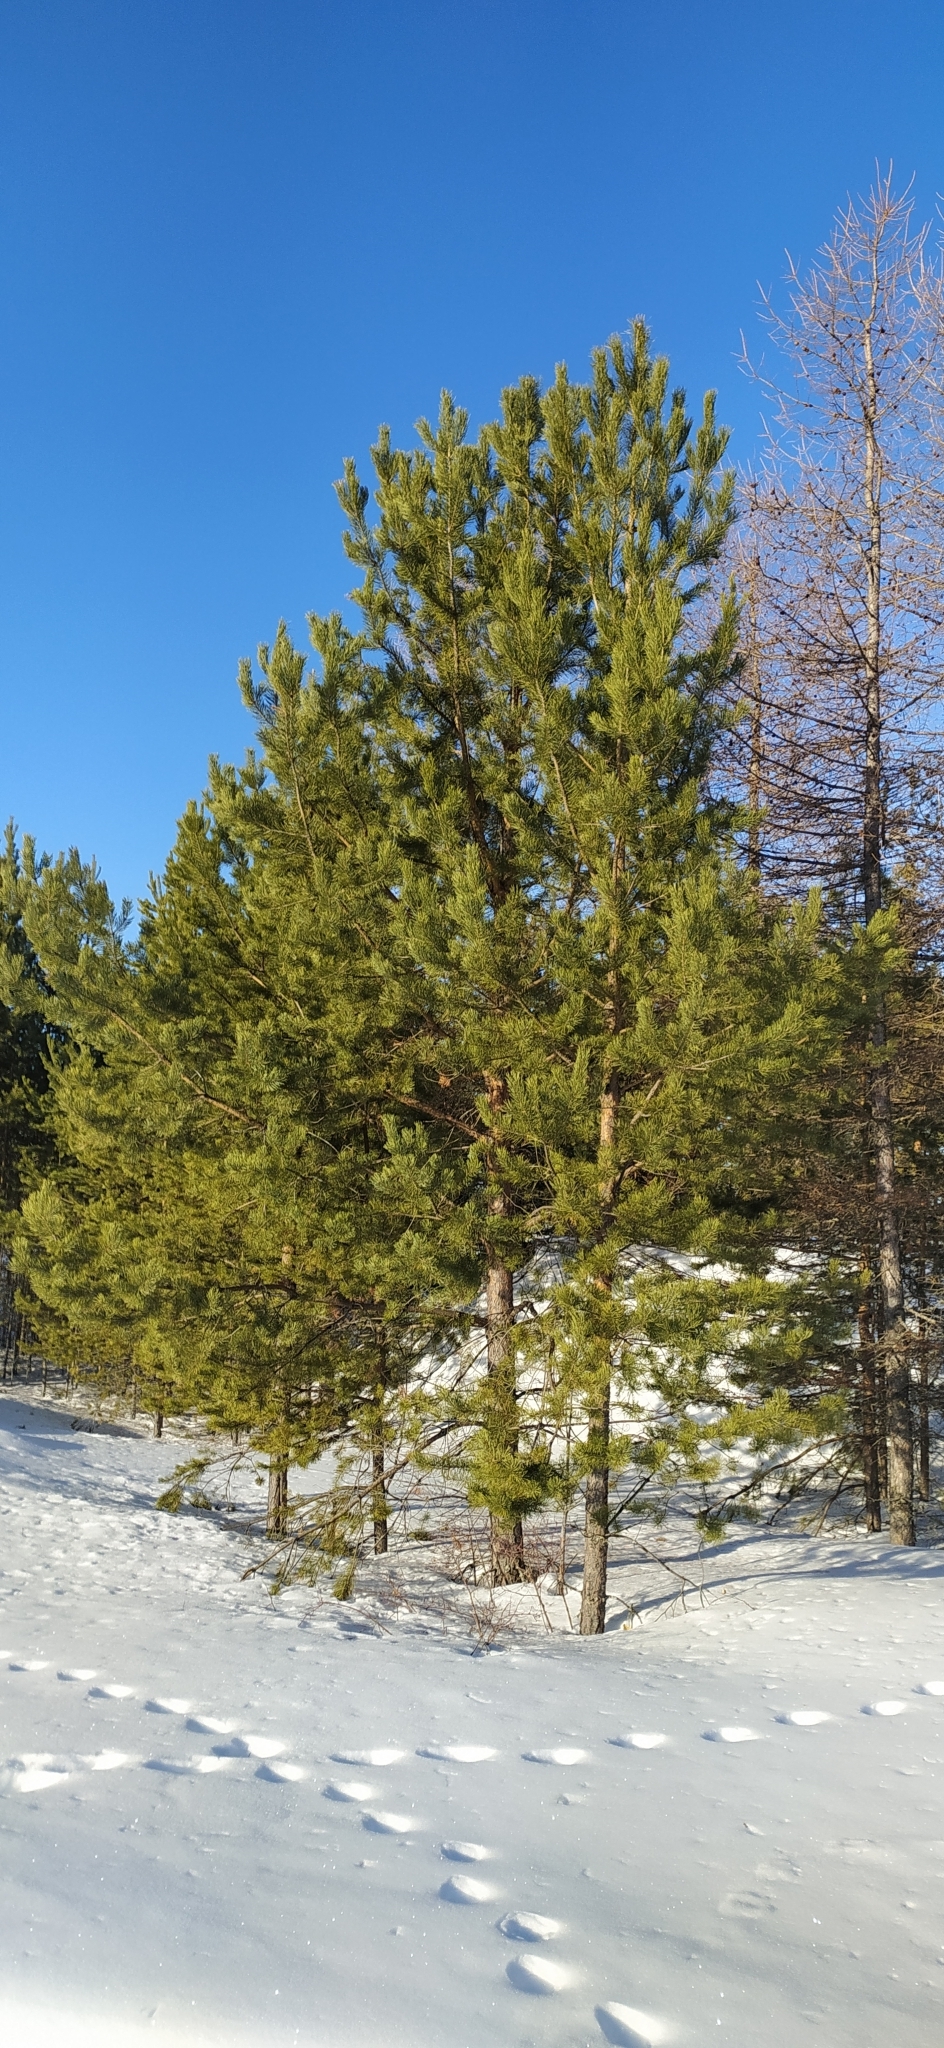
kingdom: Plantae
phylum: Tracheophyta
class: Pinopsida
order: Pinales
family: Pinaceae
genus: Pinus
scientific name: Pinus sylvestris
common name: Scots pine
